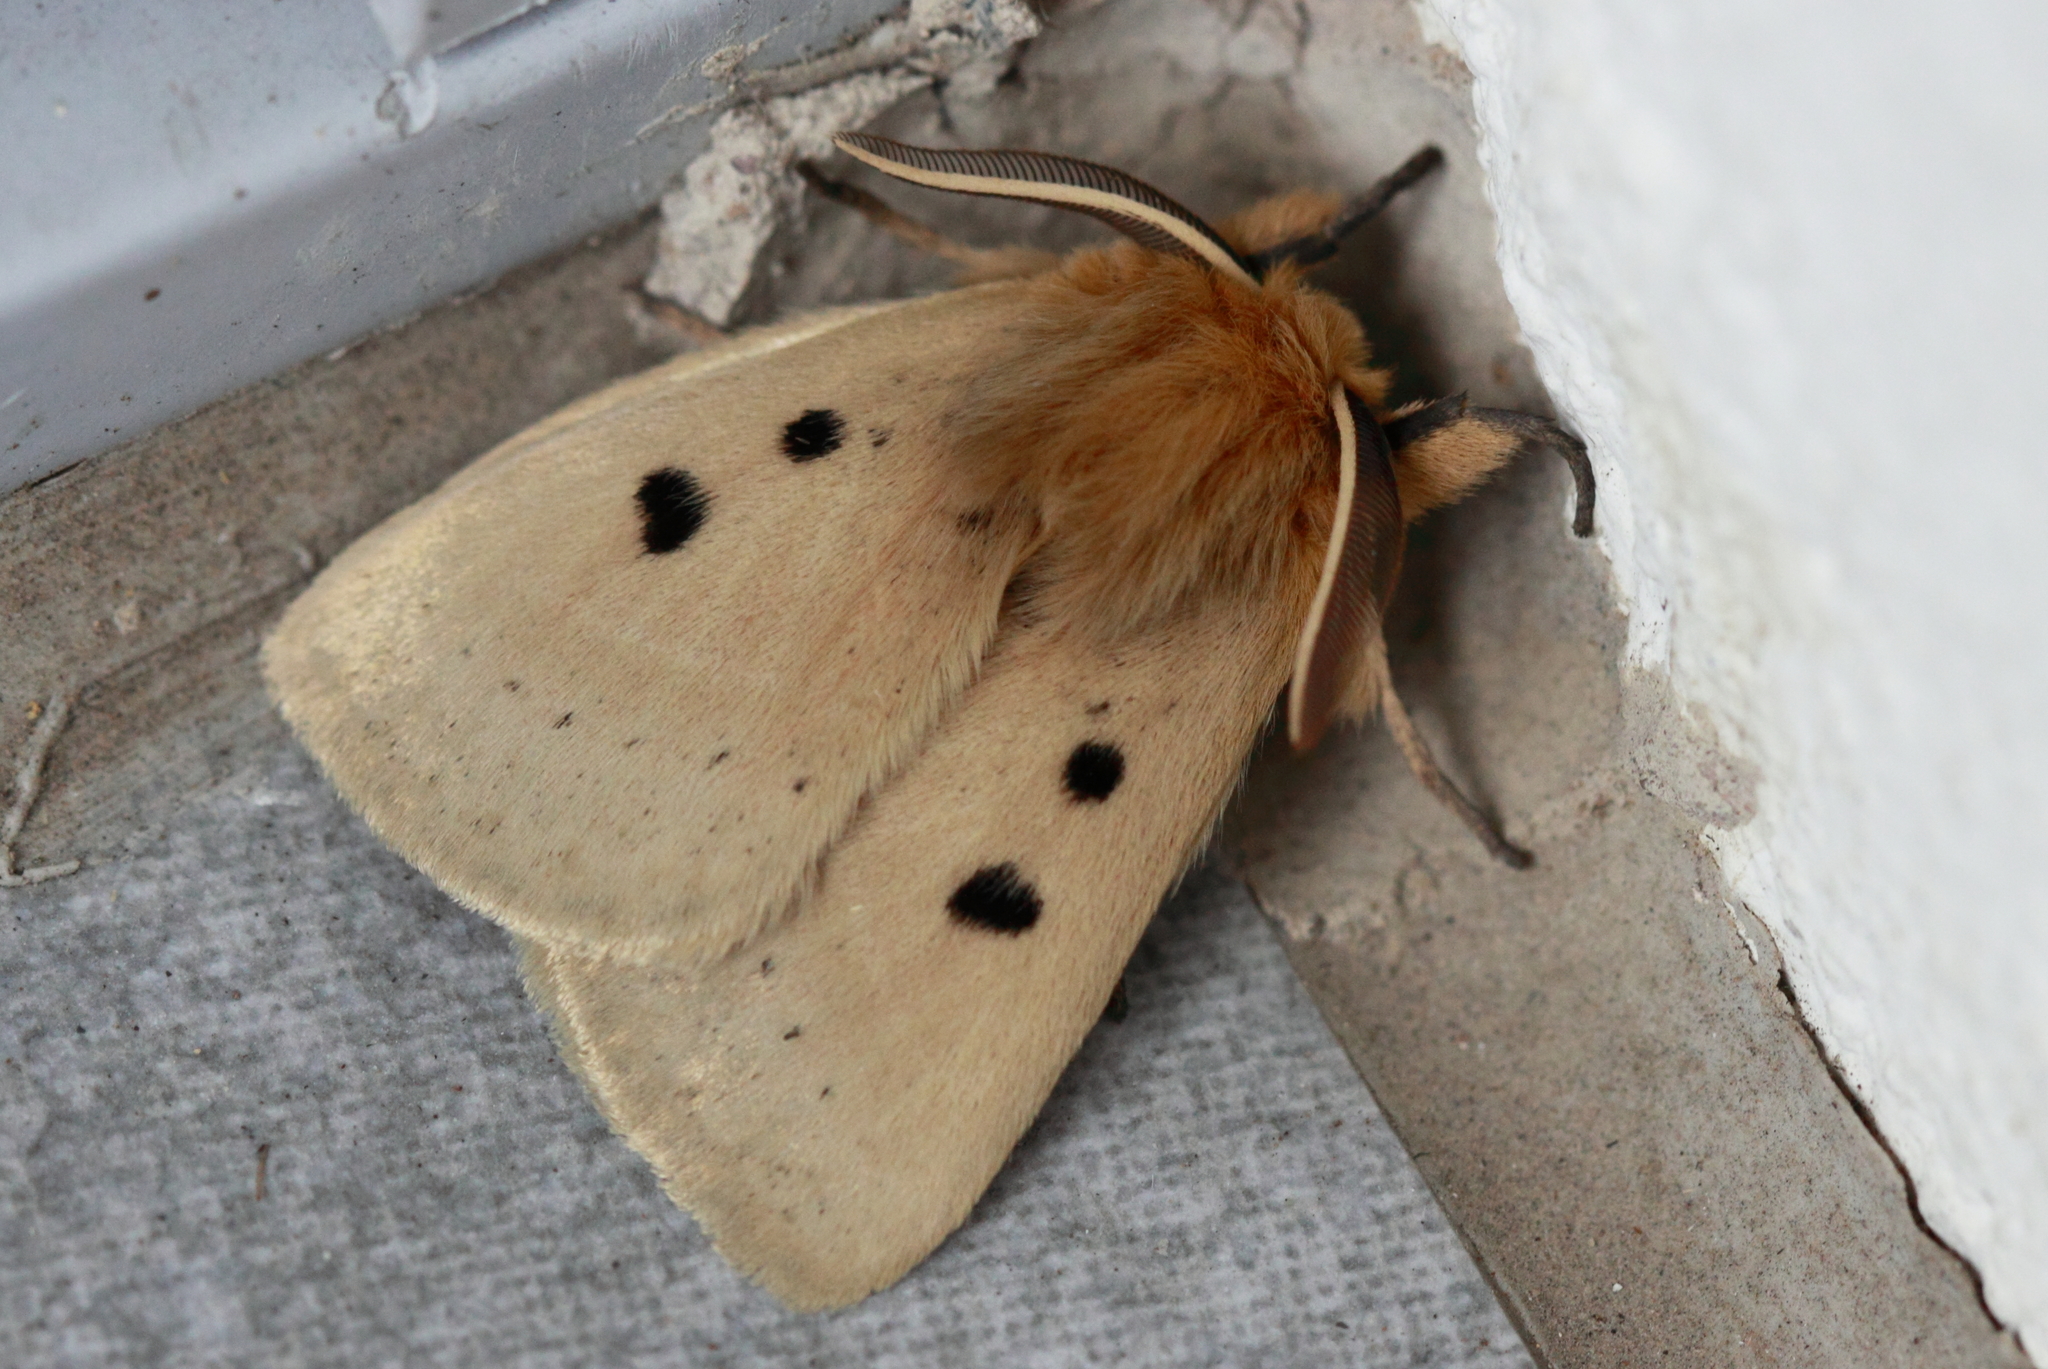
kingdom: Animalia
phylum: Arthropoda
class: Insecta
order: Lepidoptera
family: Anthelidae
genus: Anthela
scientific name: Anthela ocellata
